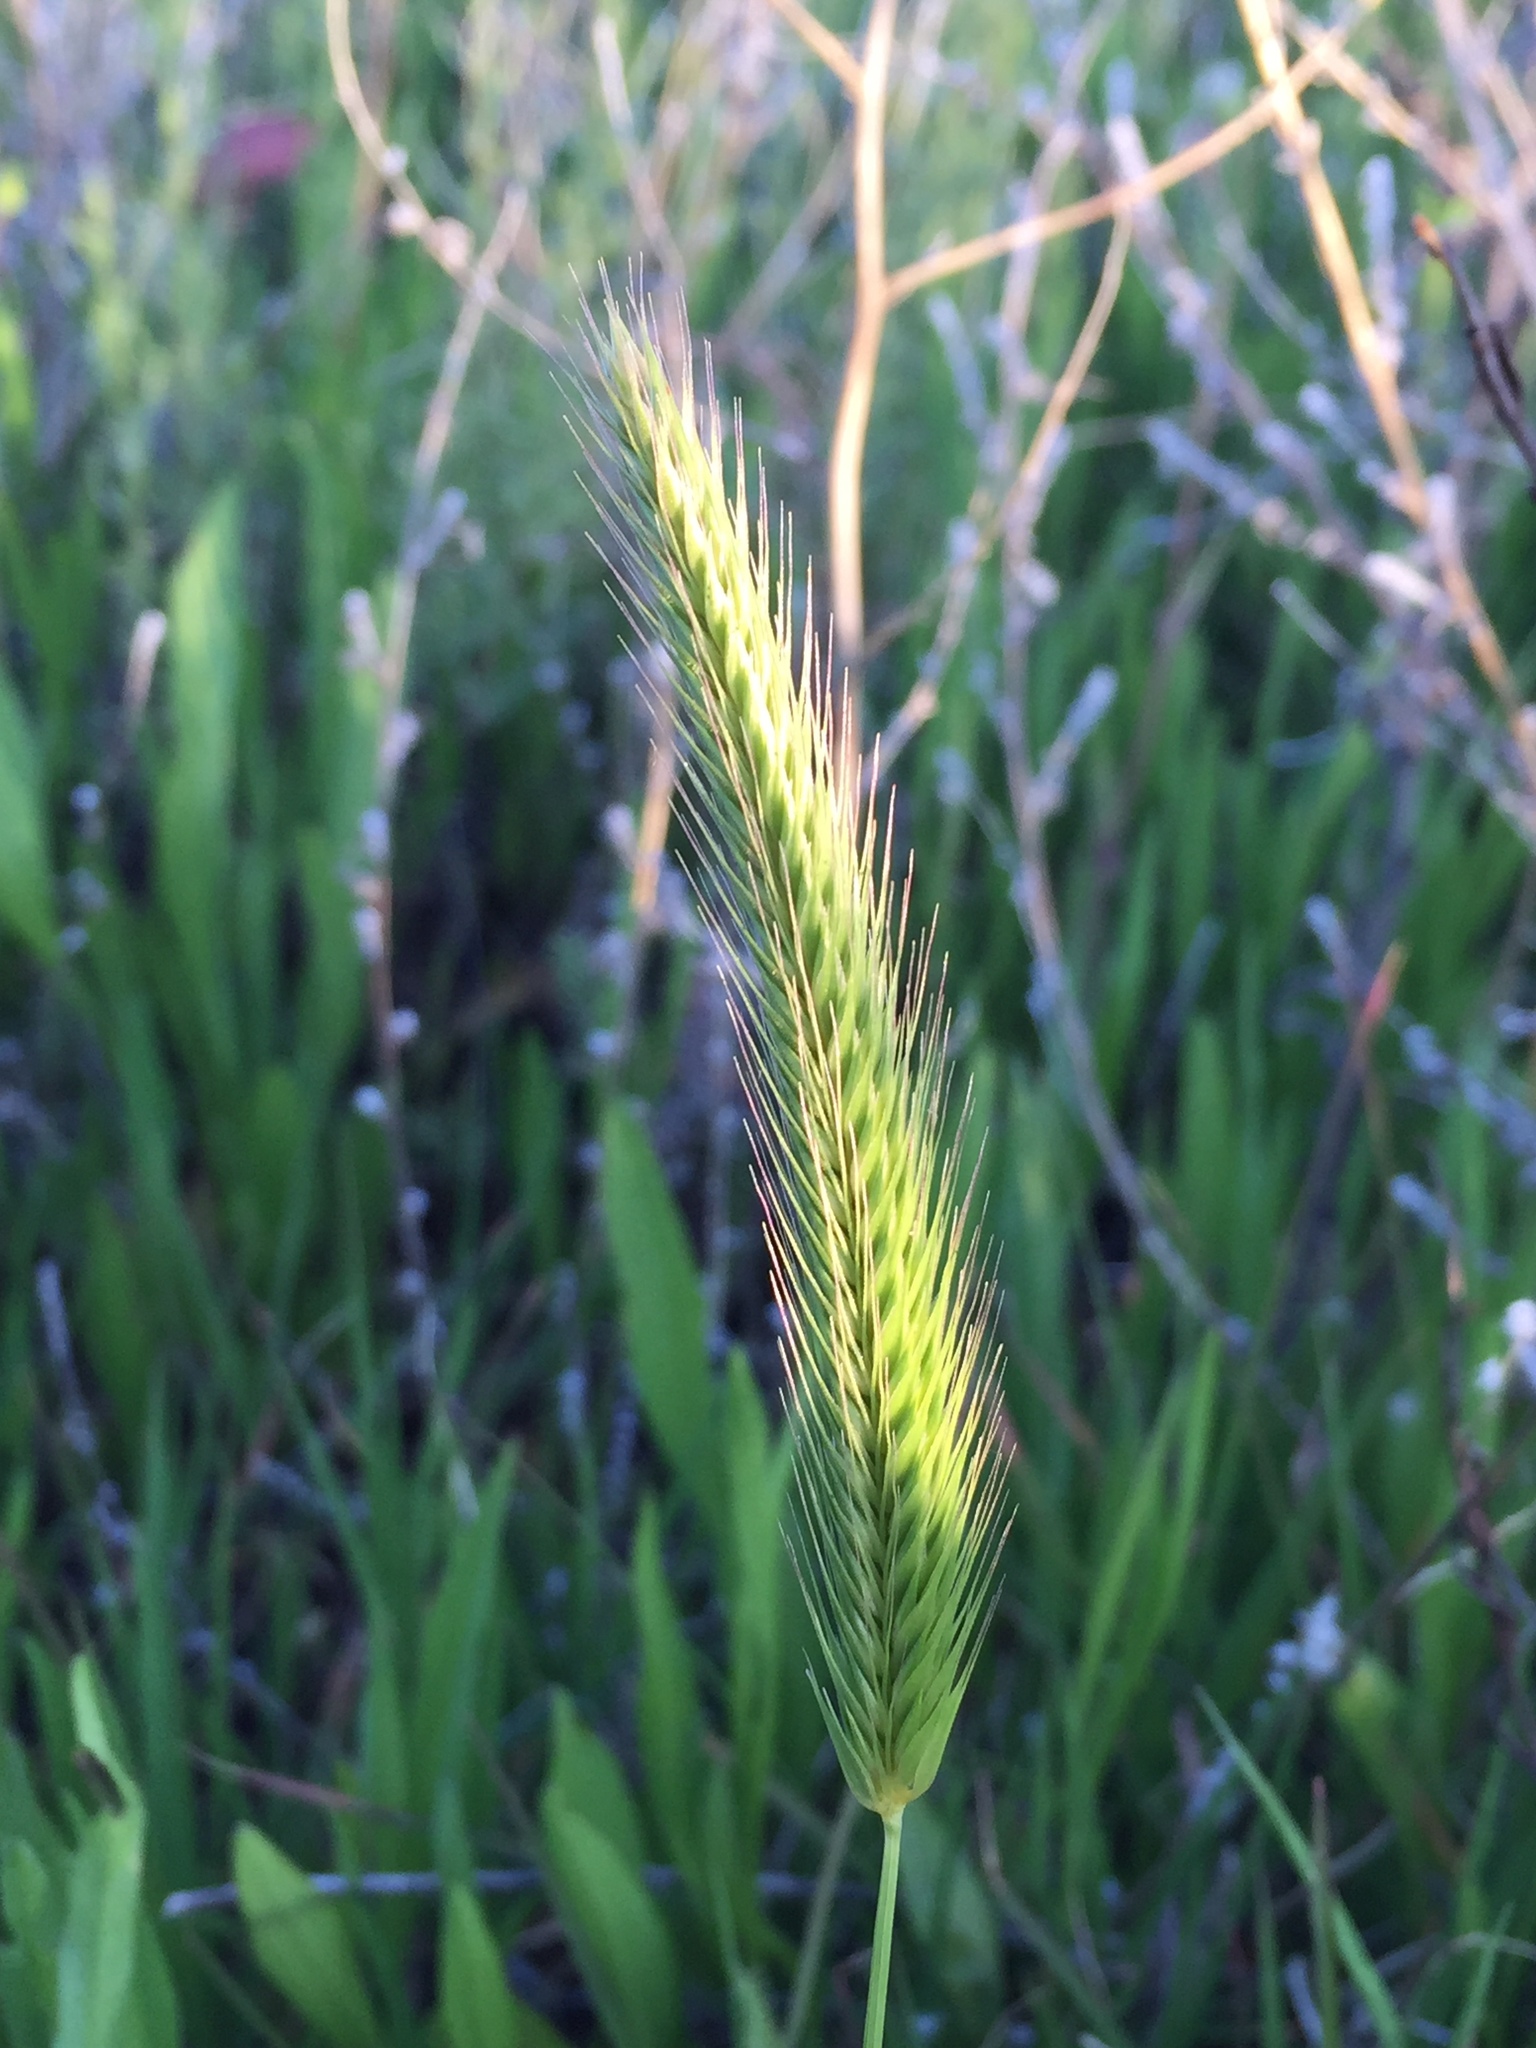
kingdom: Plantae
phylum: Tracheophyta
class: Liliopsida
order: Poales
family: Poaceae
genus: Hordeum
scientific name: Hordeum pusillum
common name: Little barley
